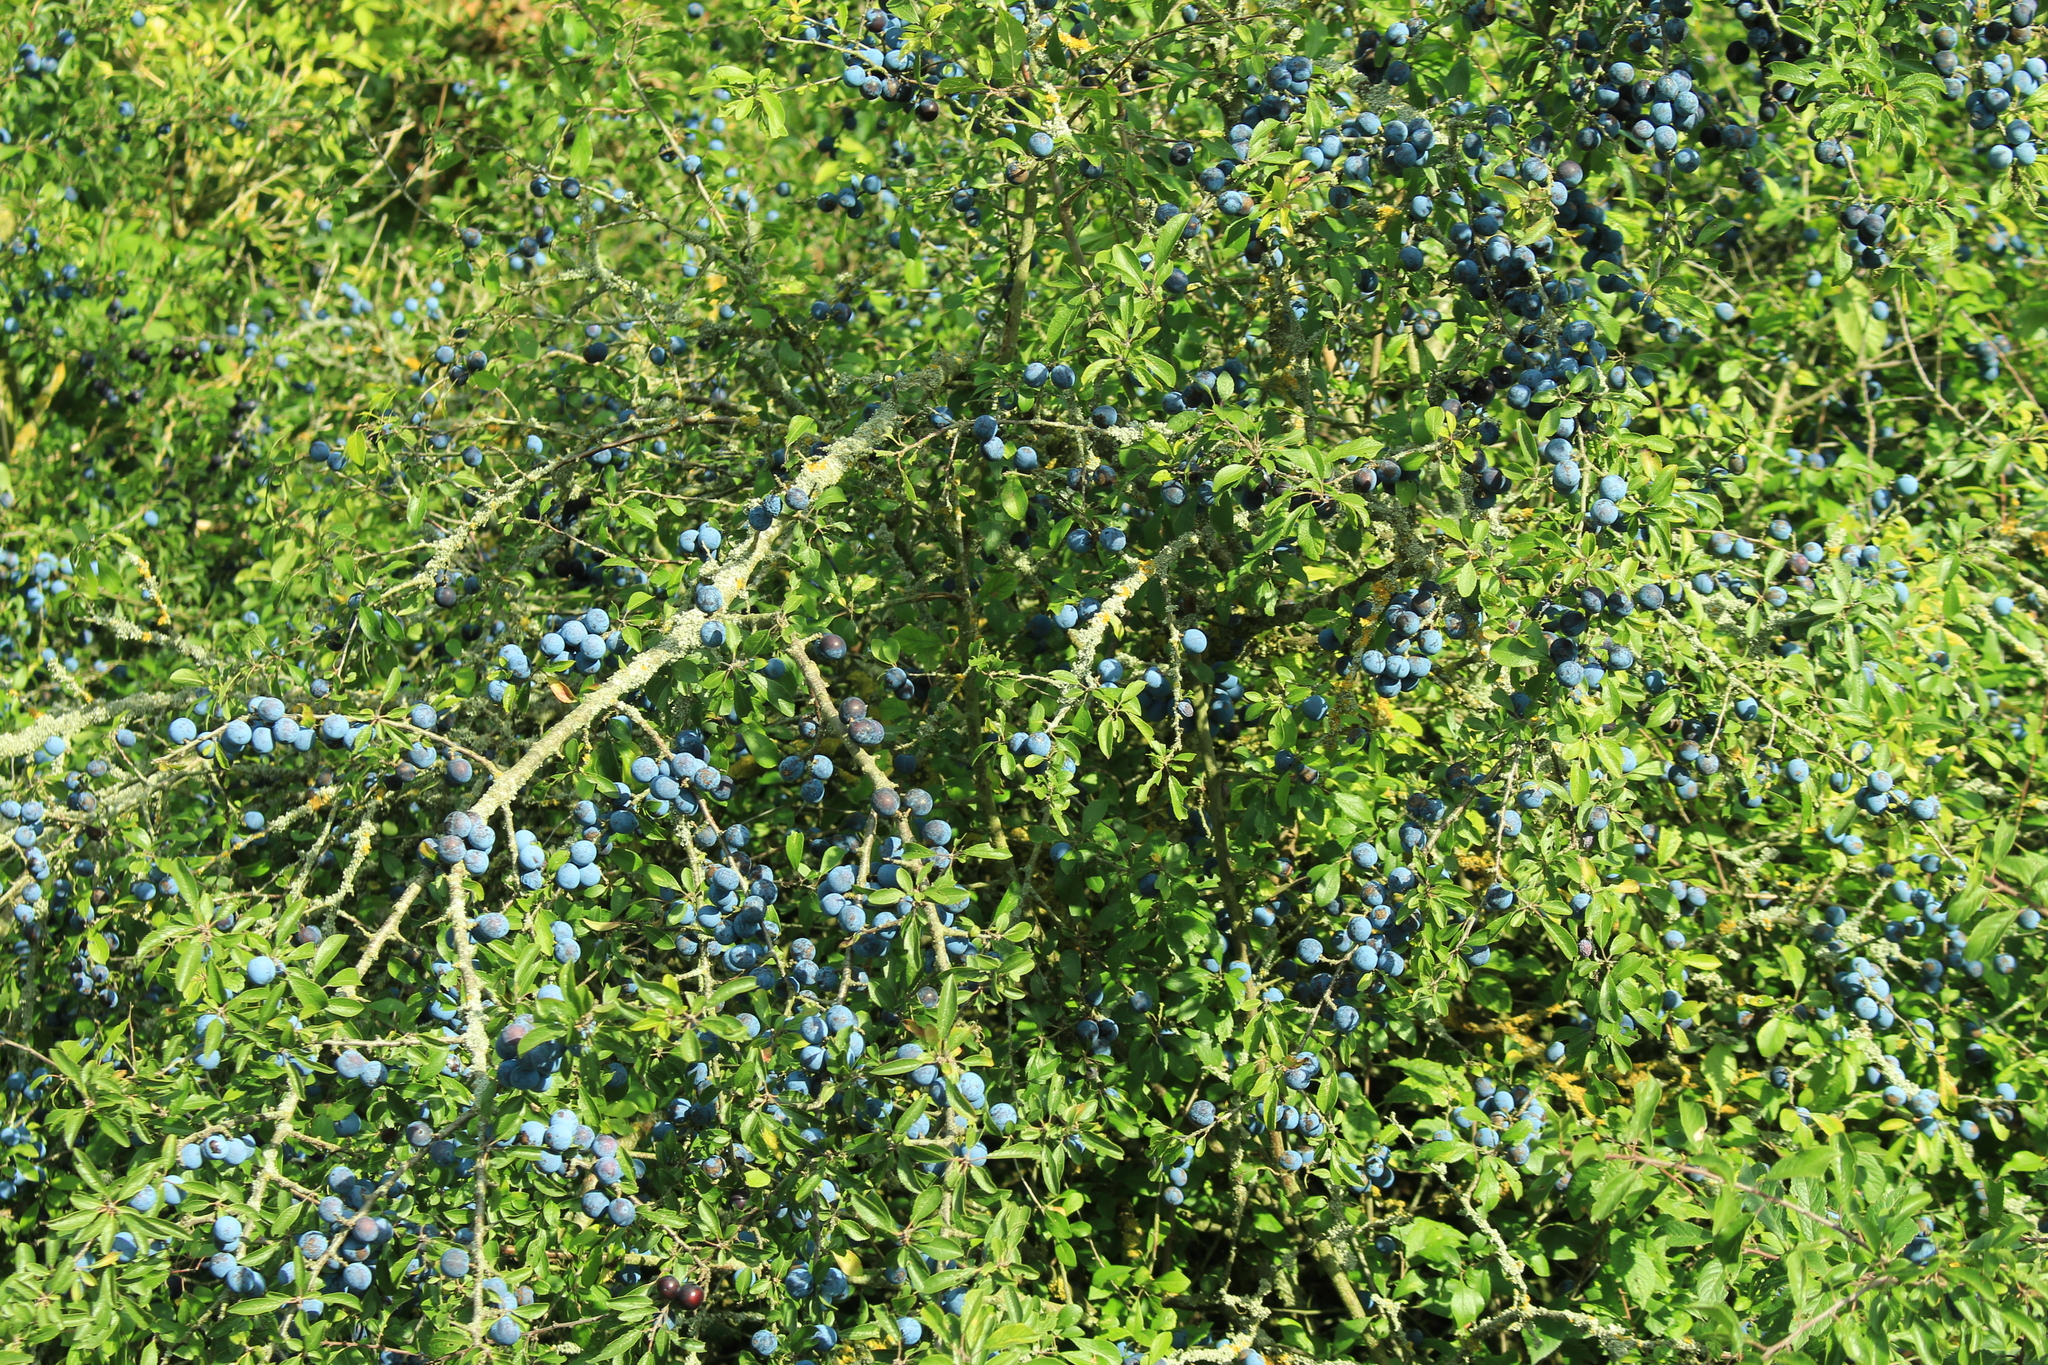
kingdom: Plantae
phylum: Tracheophyta
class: Magnoliopsida
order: Rosales
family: Rosaceae
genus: Prunus
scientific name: Prunus spinosa
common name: Blackthorn
